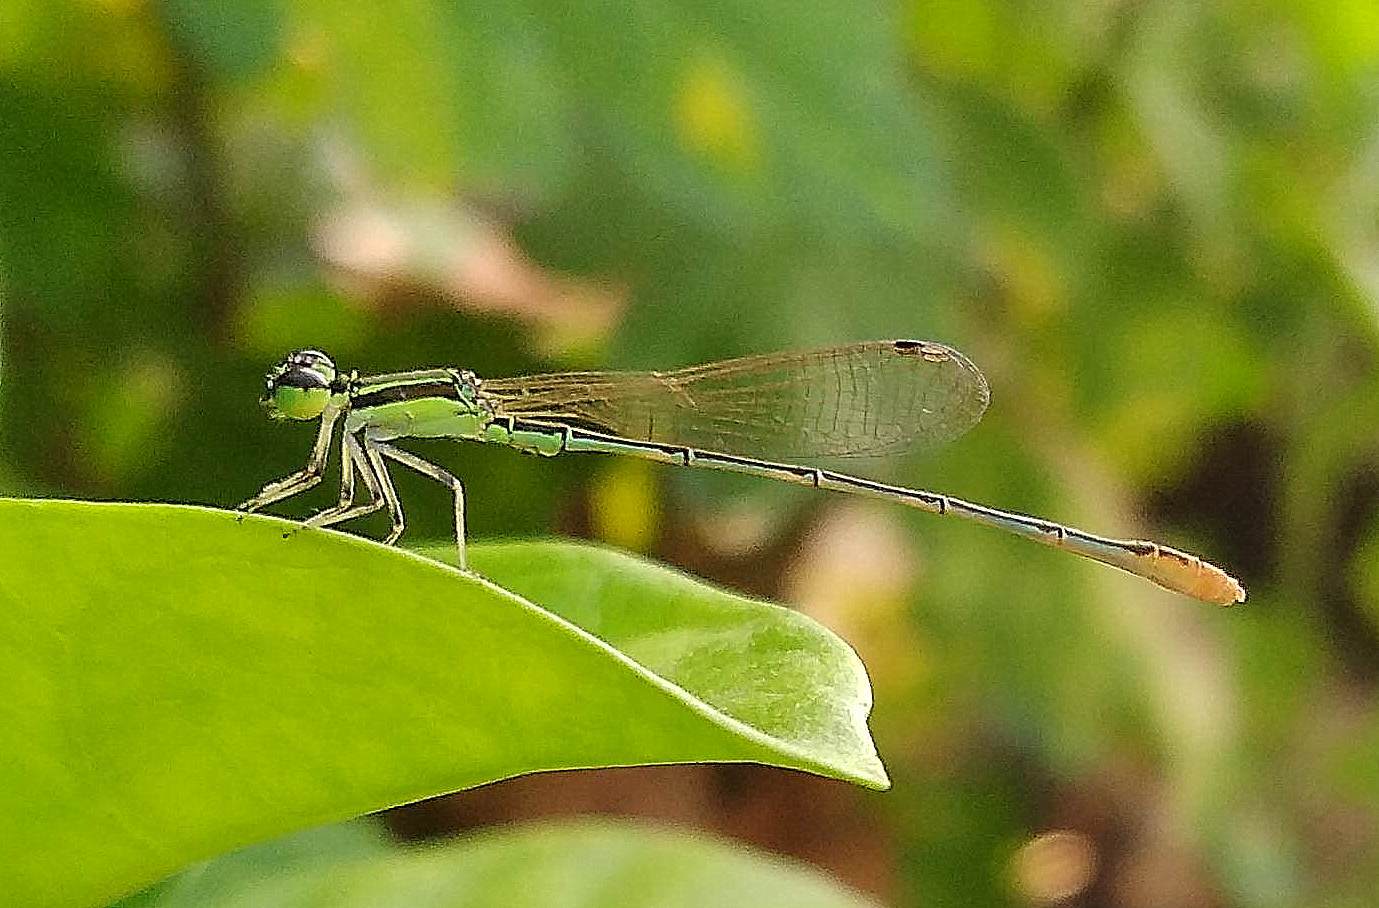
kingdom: Animalia
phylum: Arthropoda
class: Insecta
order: Odonata
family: Coenagrionidae
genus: Agriocnemis
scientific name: Agriocnemis pygmaea
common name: Pygmy wisp
